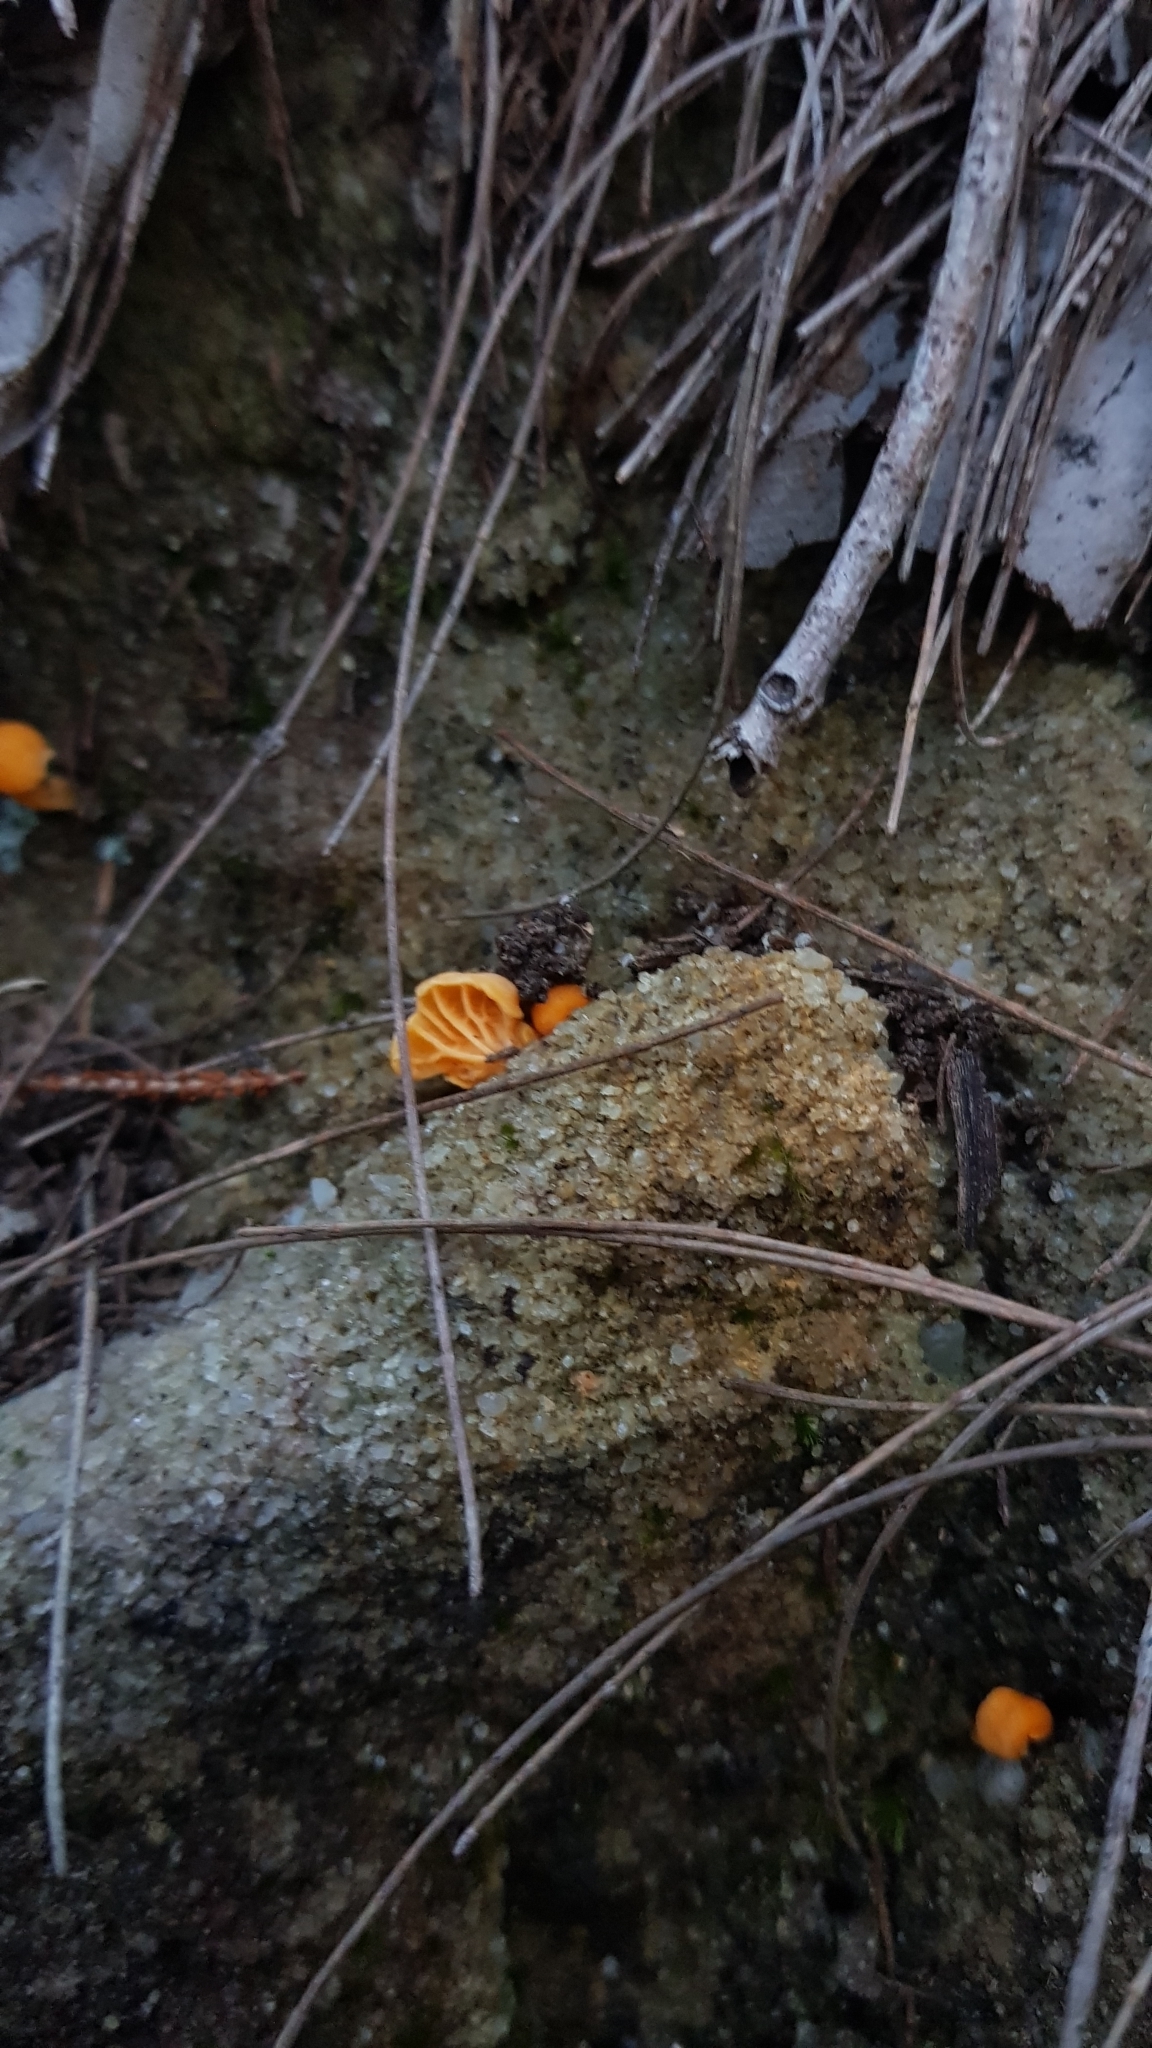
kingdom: Fungi
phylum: Basidiomycota
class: Agaricomycetes
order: Cantharellales
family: Hydnaceae
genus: Cantharellus
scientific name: Cantharellus
